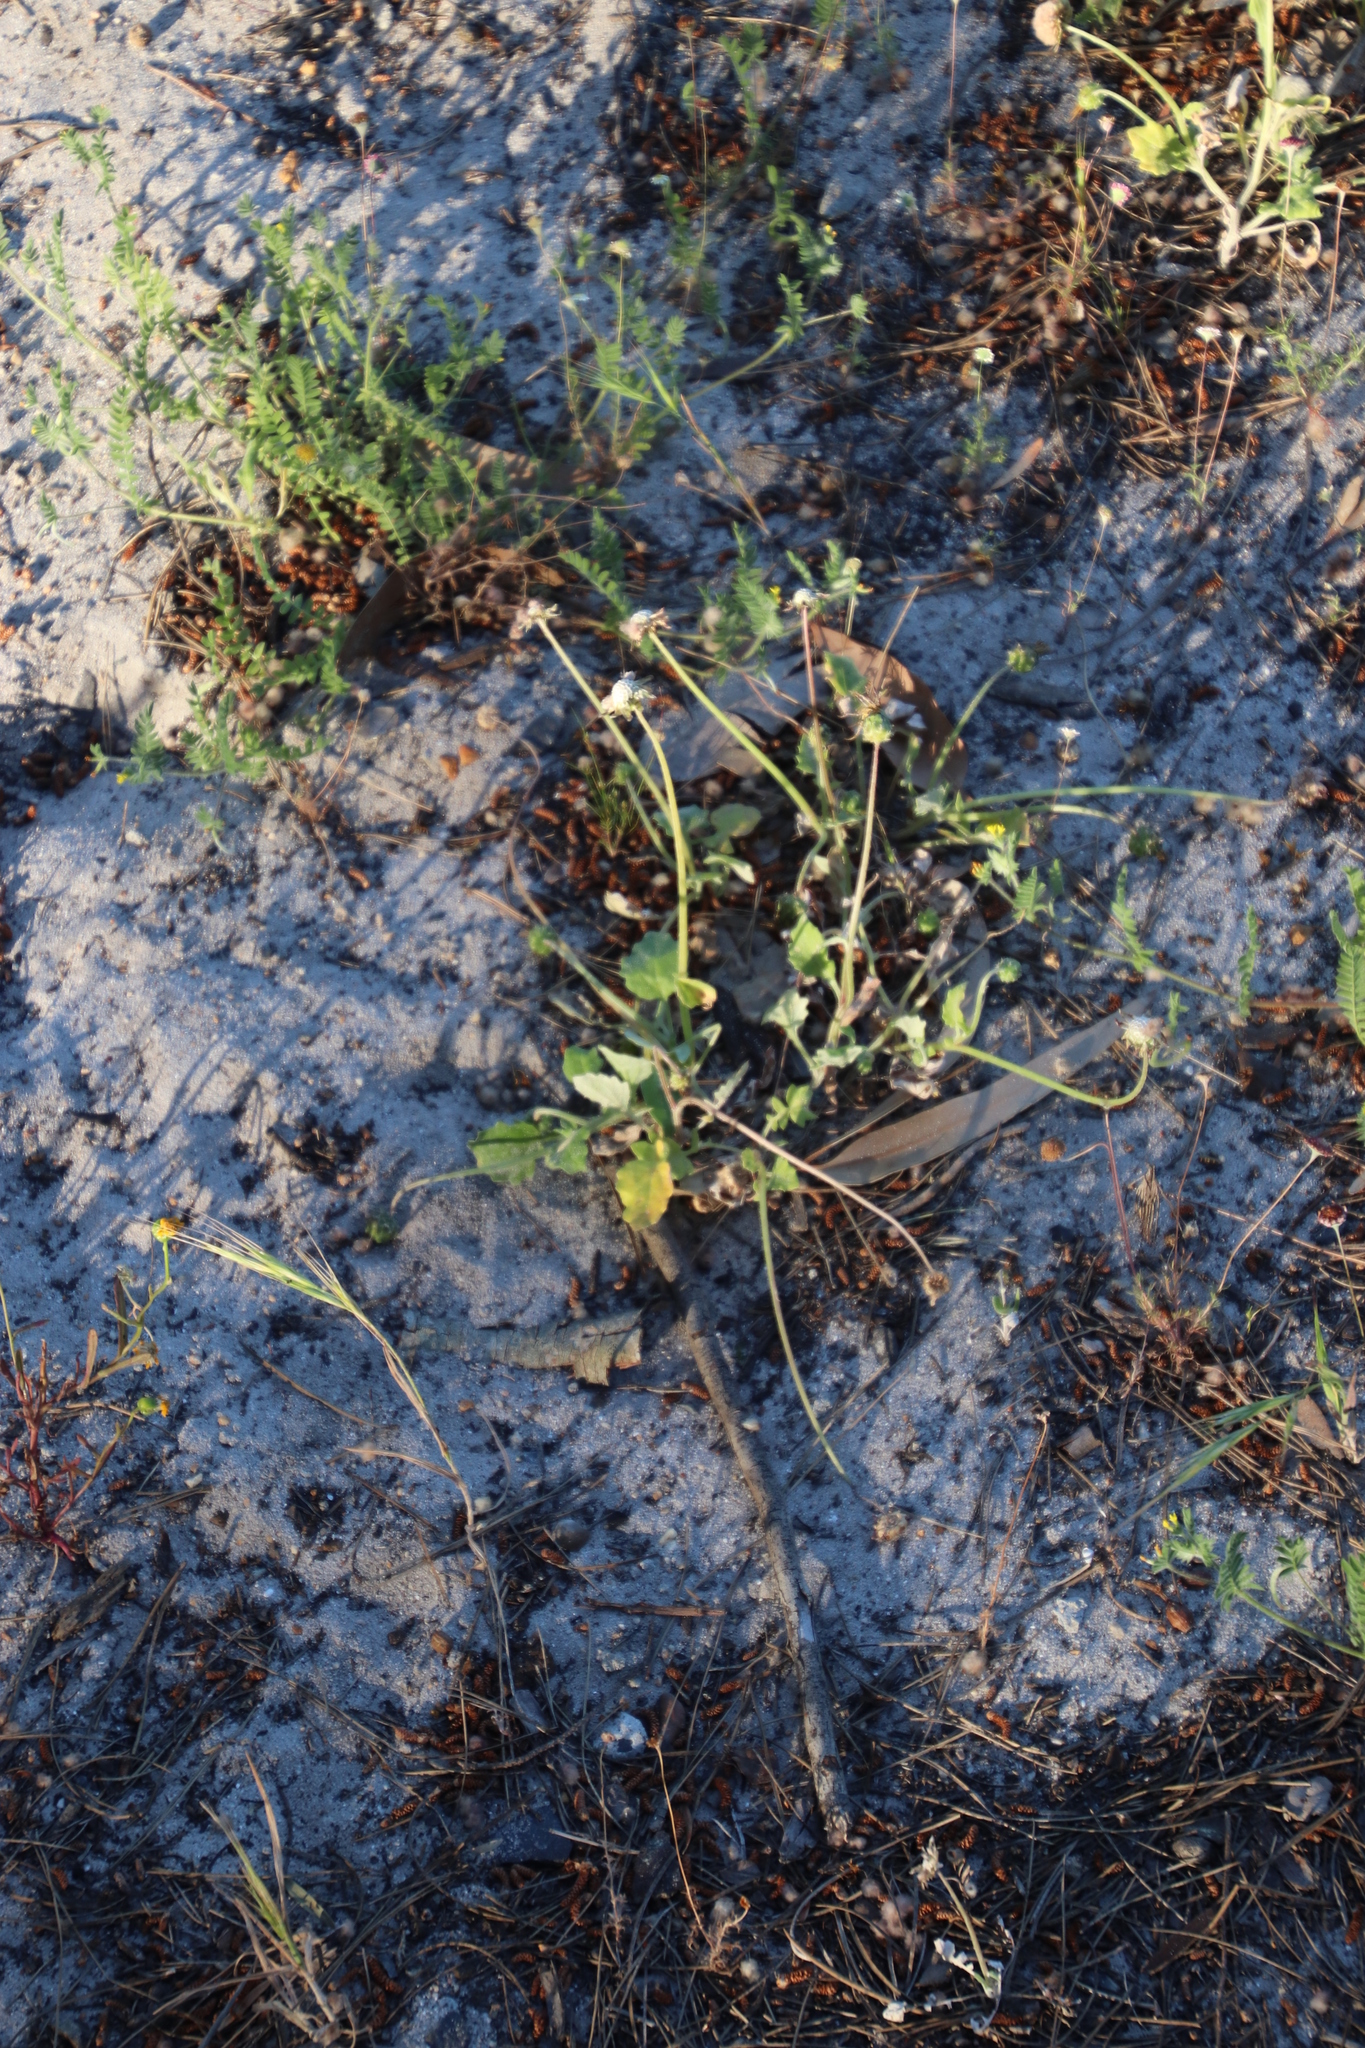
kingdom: Plantae
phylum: Tracheophyta
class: Magnoliopsida
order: Asterales
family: Asteraceae
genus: Arctotheca
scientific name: Arctotheca calendula
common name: Capeweed
